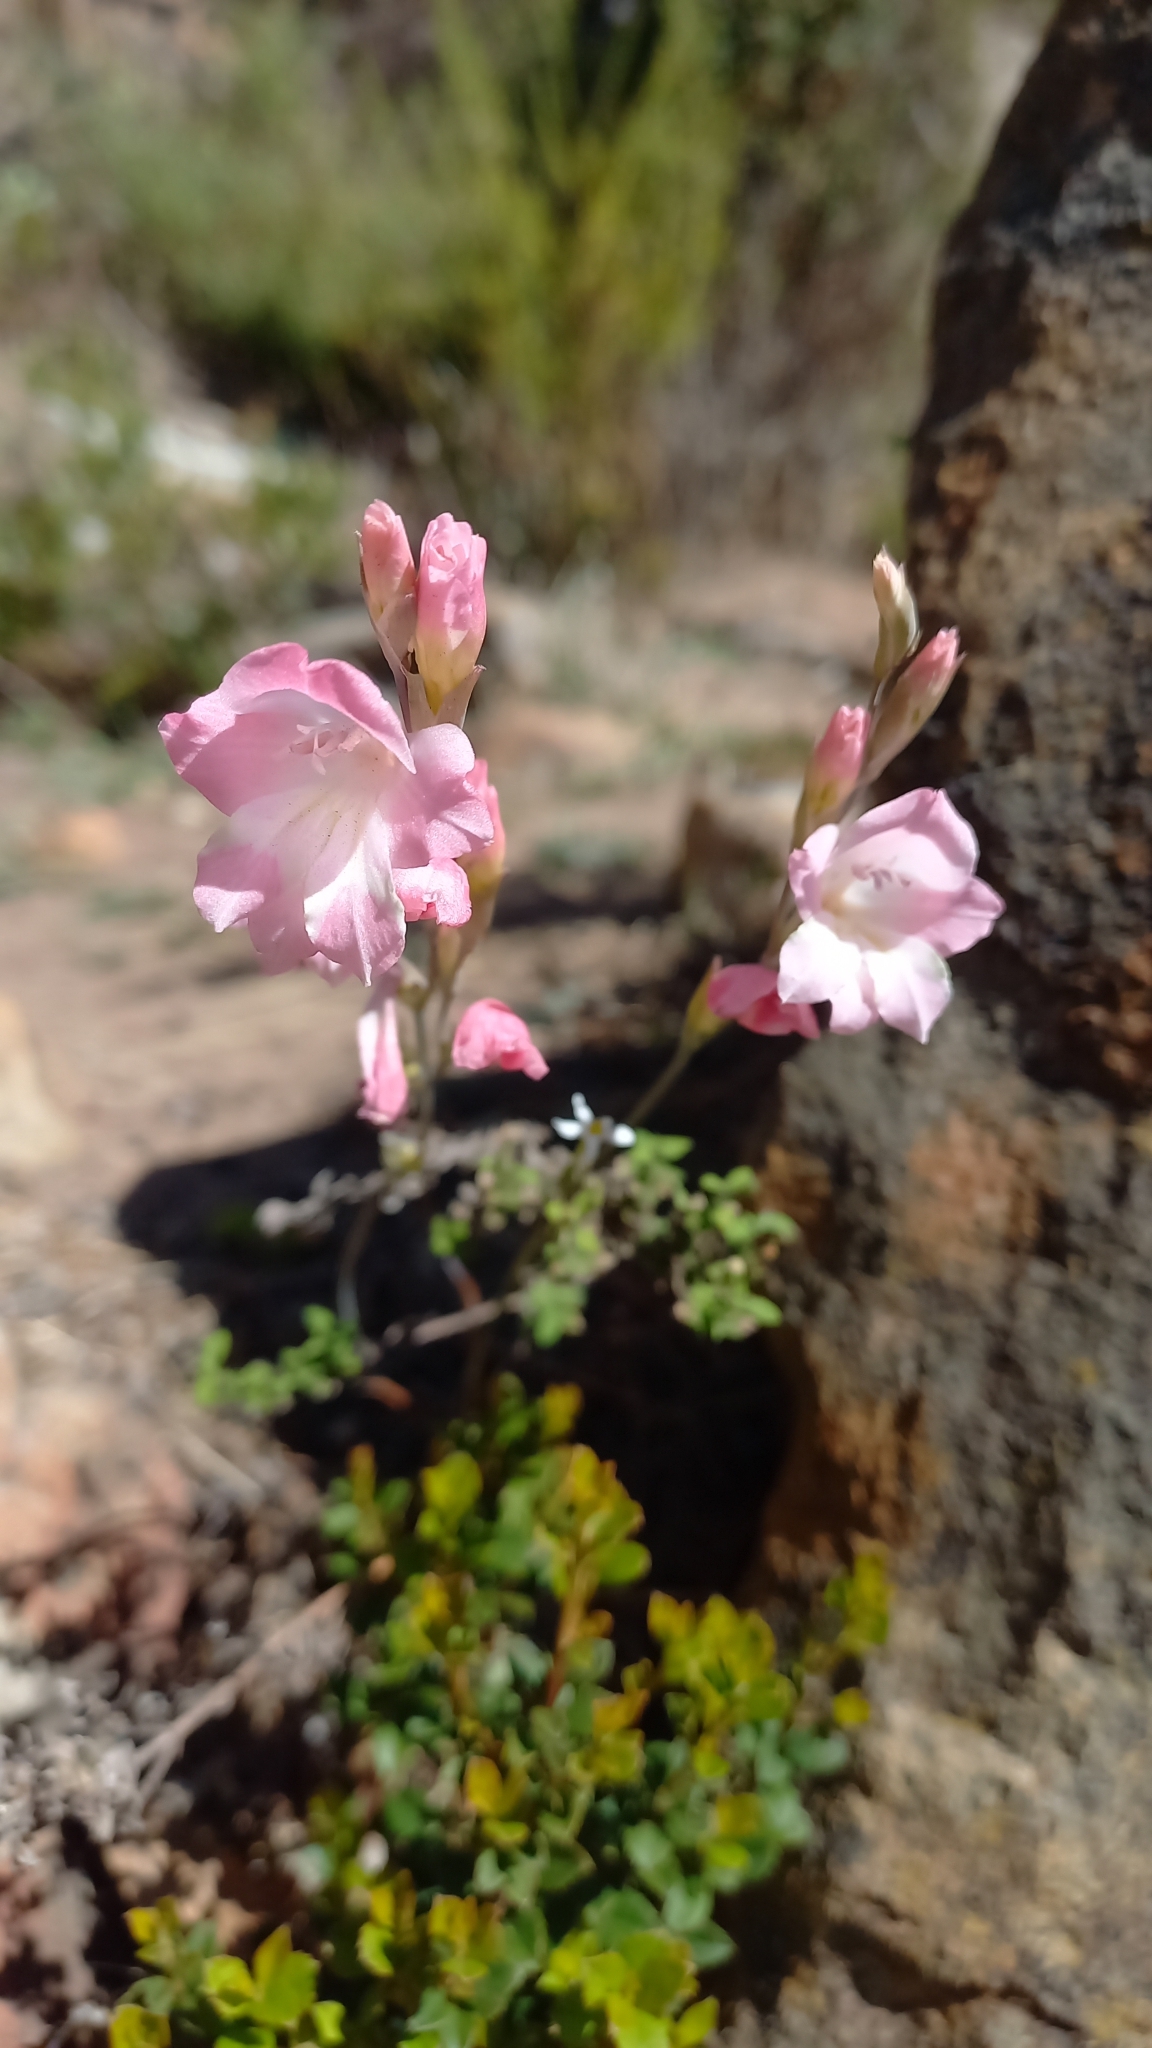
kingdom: Plantae
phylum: Tracheophyta
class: Liliopsida
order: Asparagales
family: Iridaceae
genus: Gladiolus
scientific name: Gladiolus brevifolius
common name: March pypie
